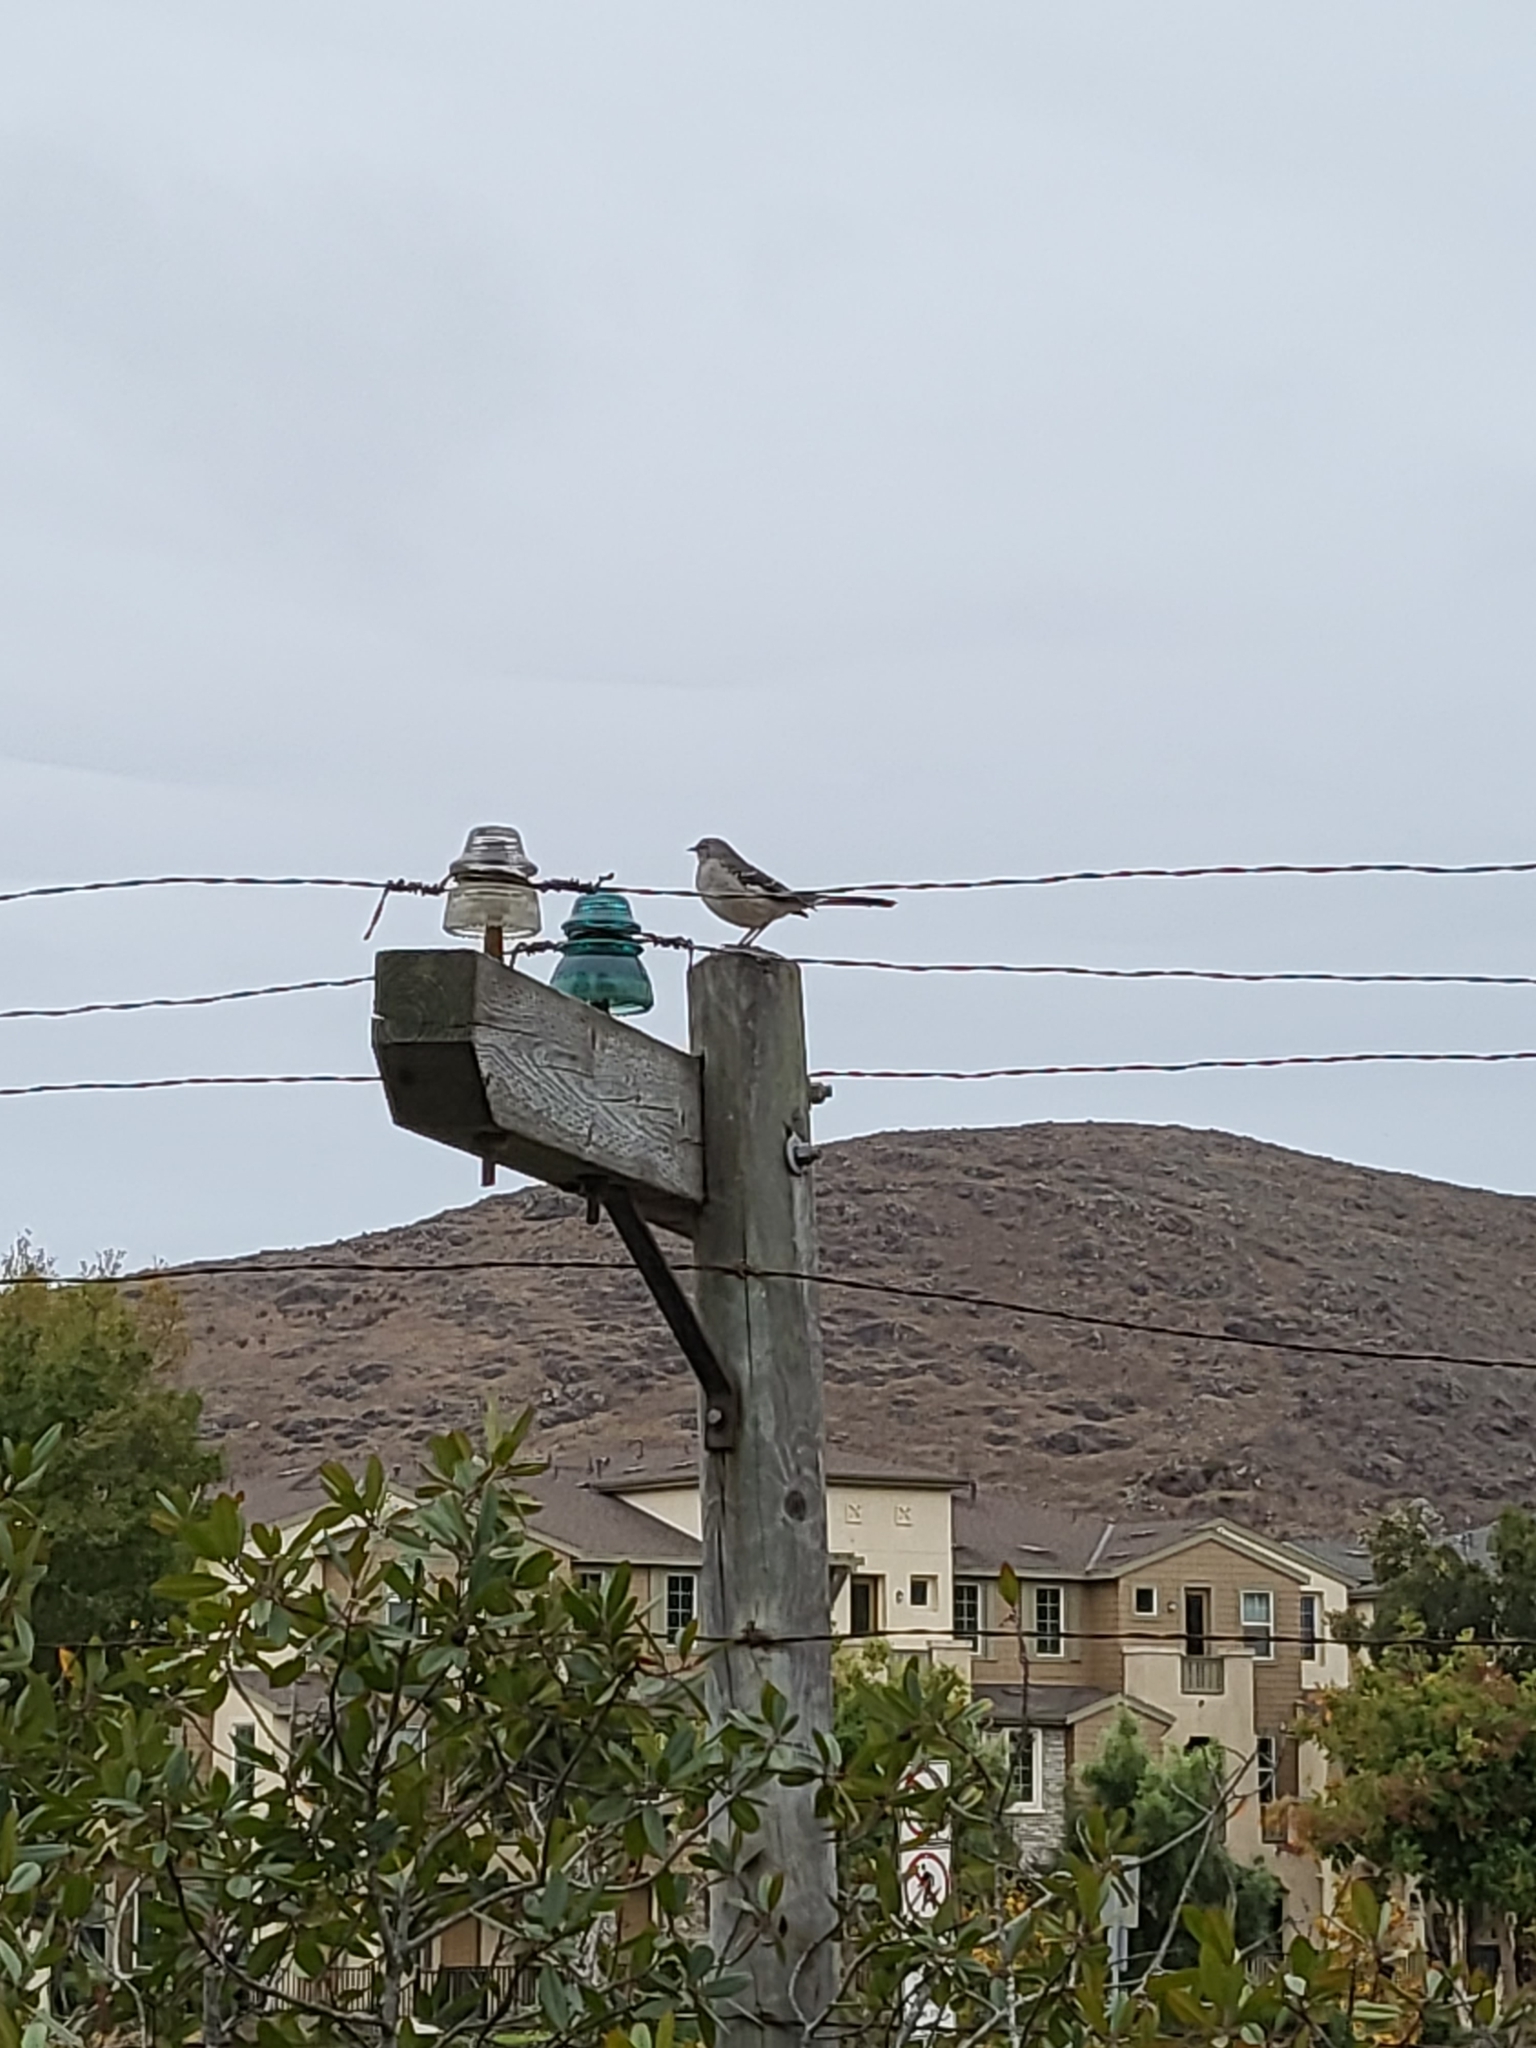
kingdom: Animalia
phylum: Chordata
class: Aves
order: Passeriformes
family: Mimidae
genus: Mimus
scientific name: Mimus polyglottos
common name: Northern mockingbird
